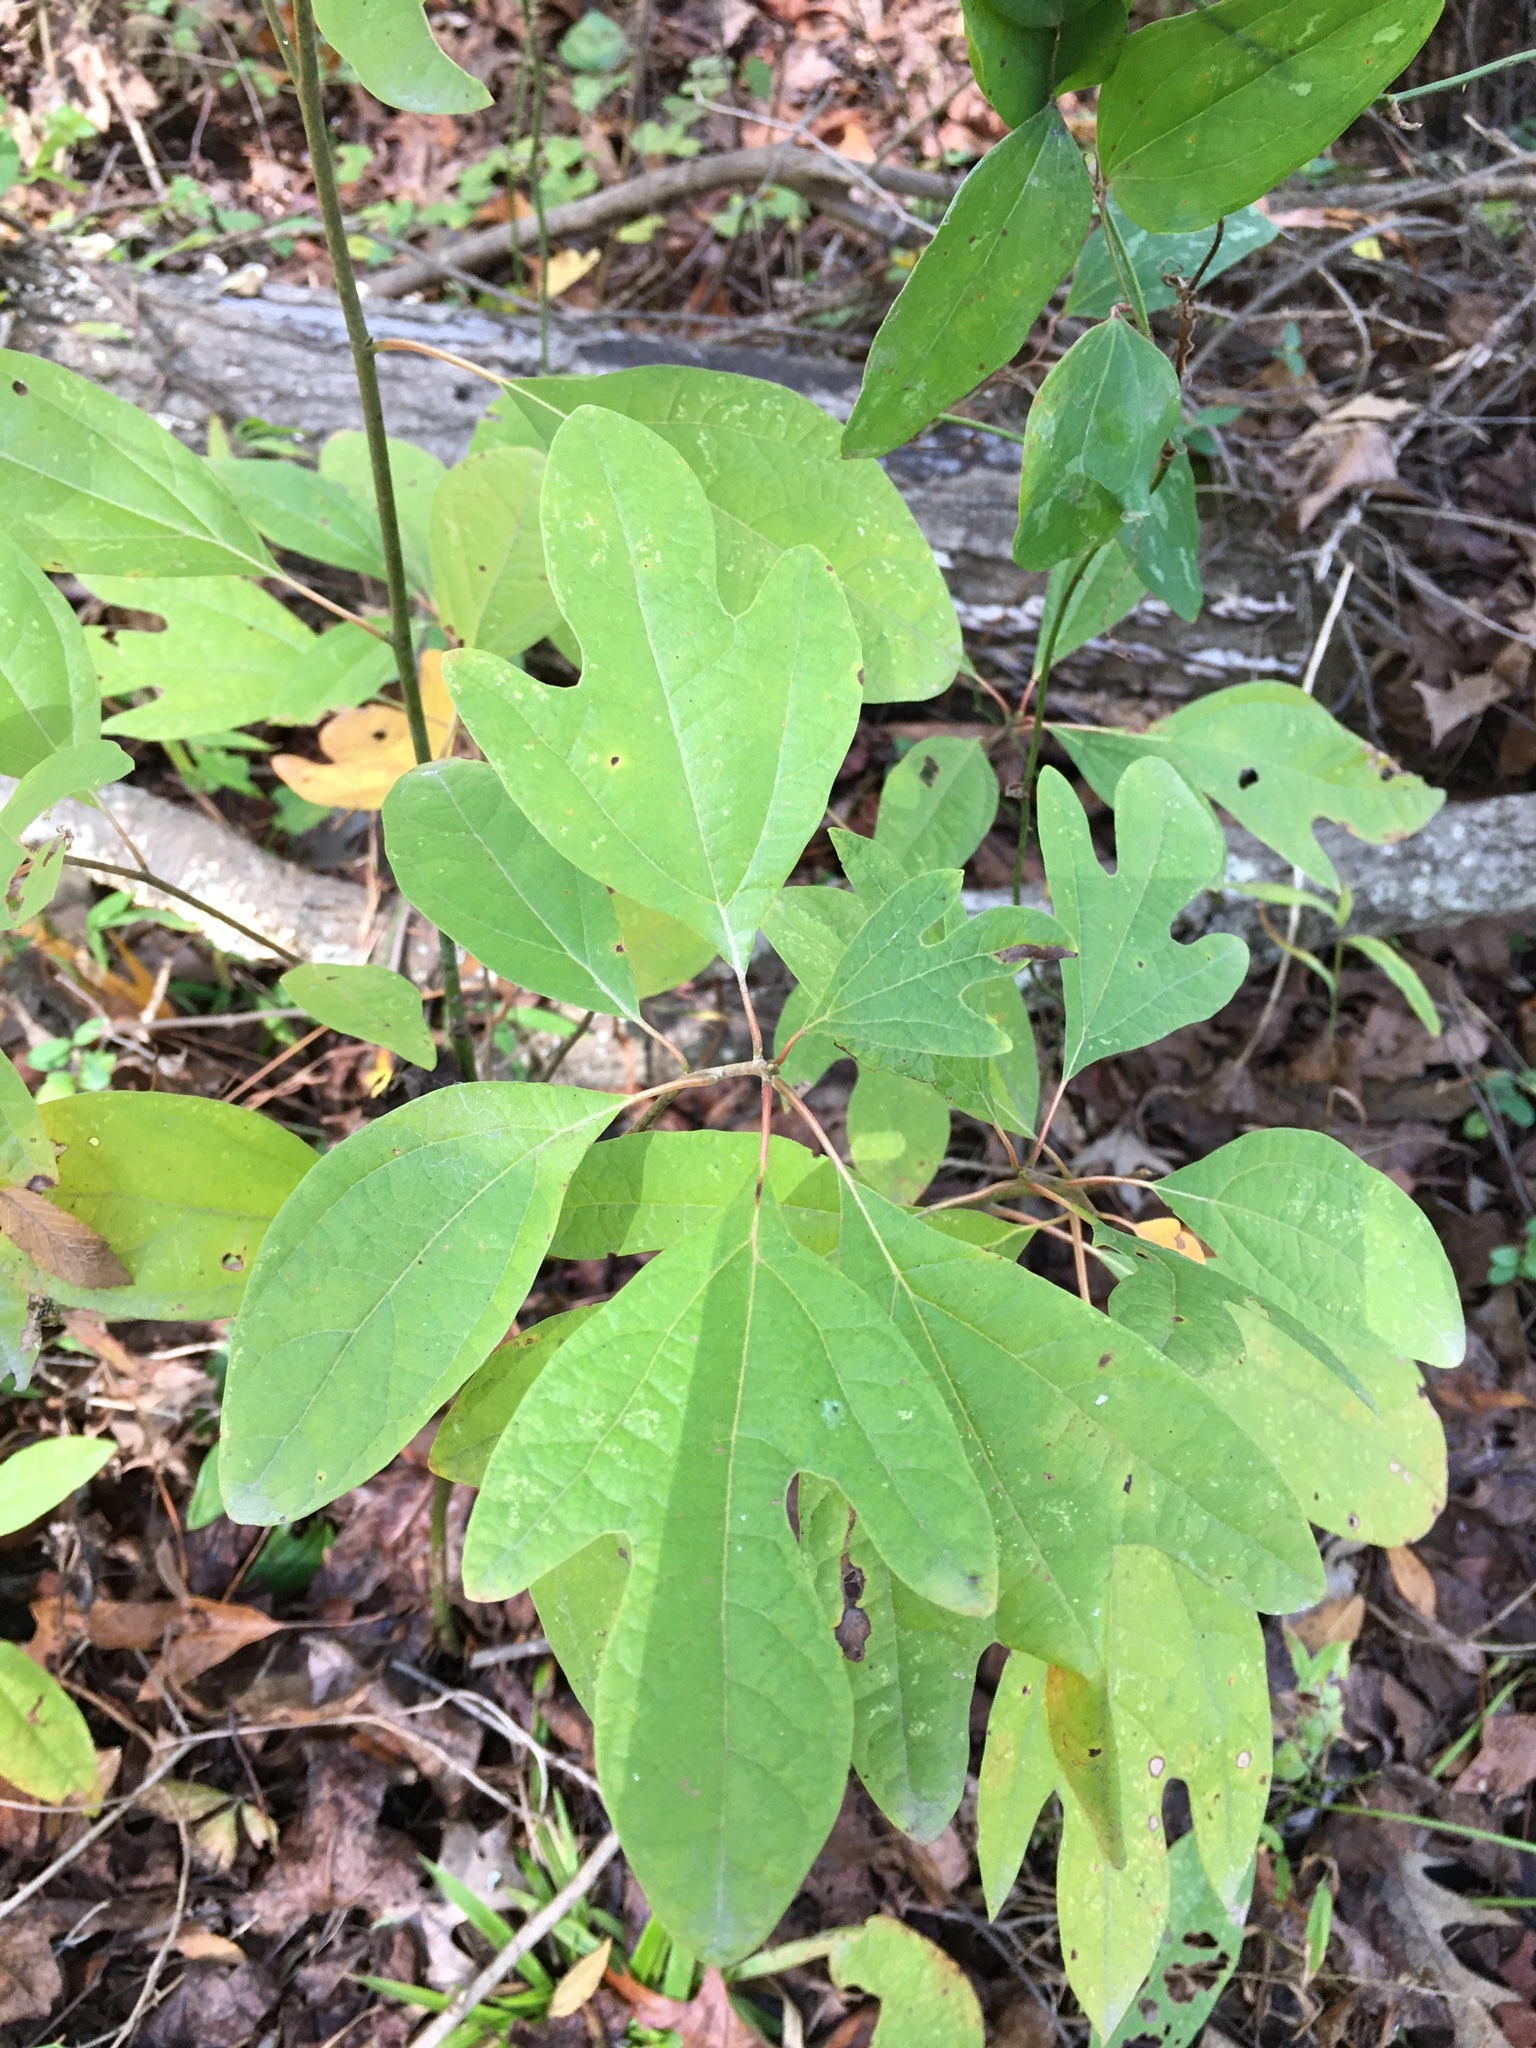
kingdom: Plantae
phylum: Tracheophyta
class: Magnoliopsida
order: Laurales
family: Lauraceae
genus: Sassafras
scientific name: Sassafras albidum
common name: Sassafras
